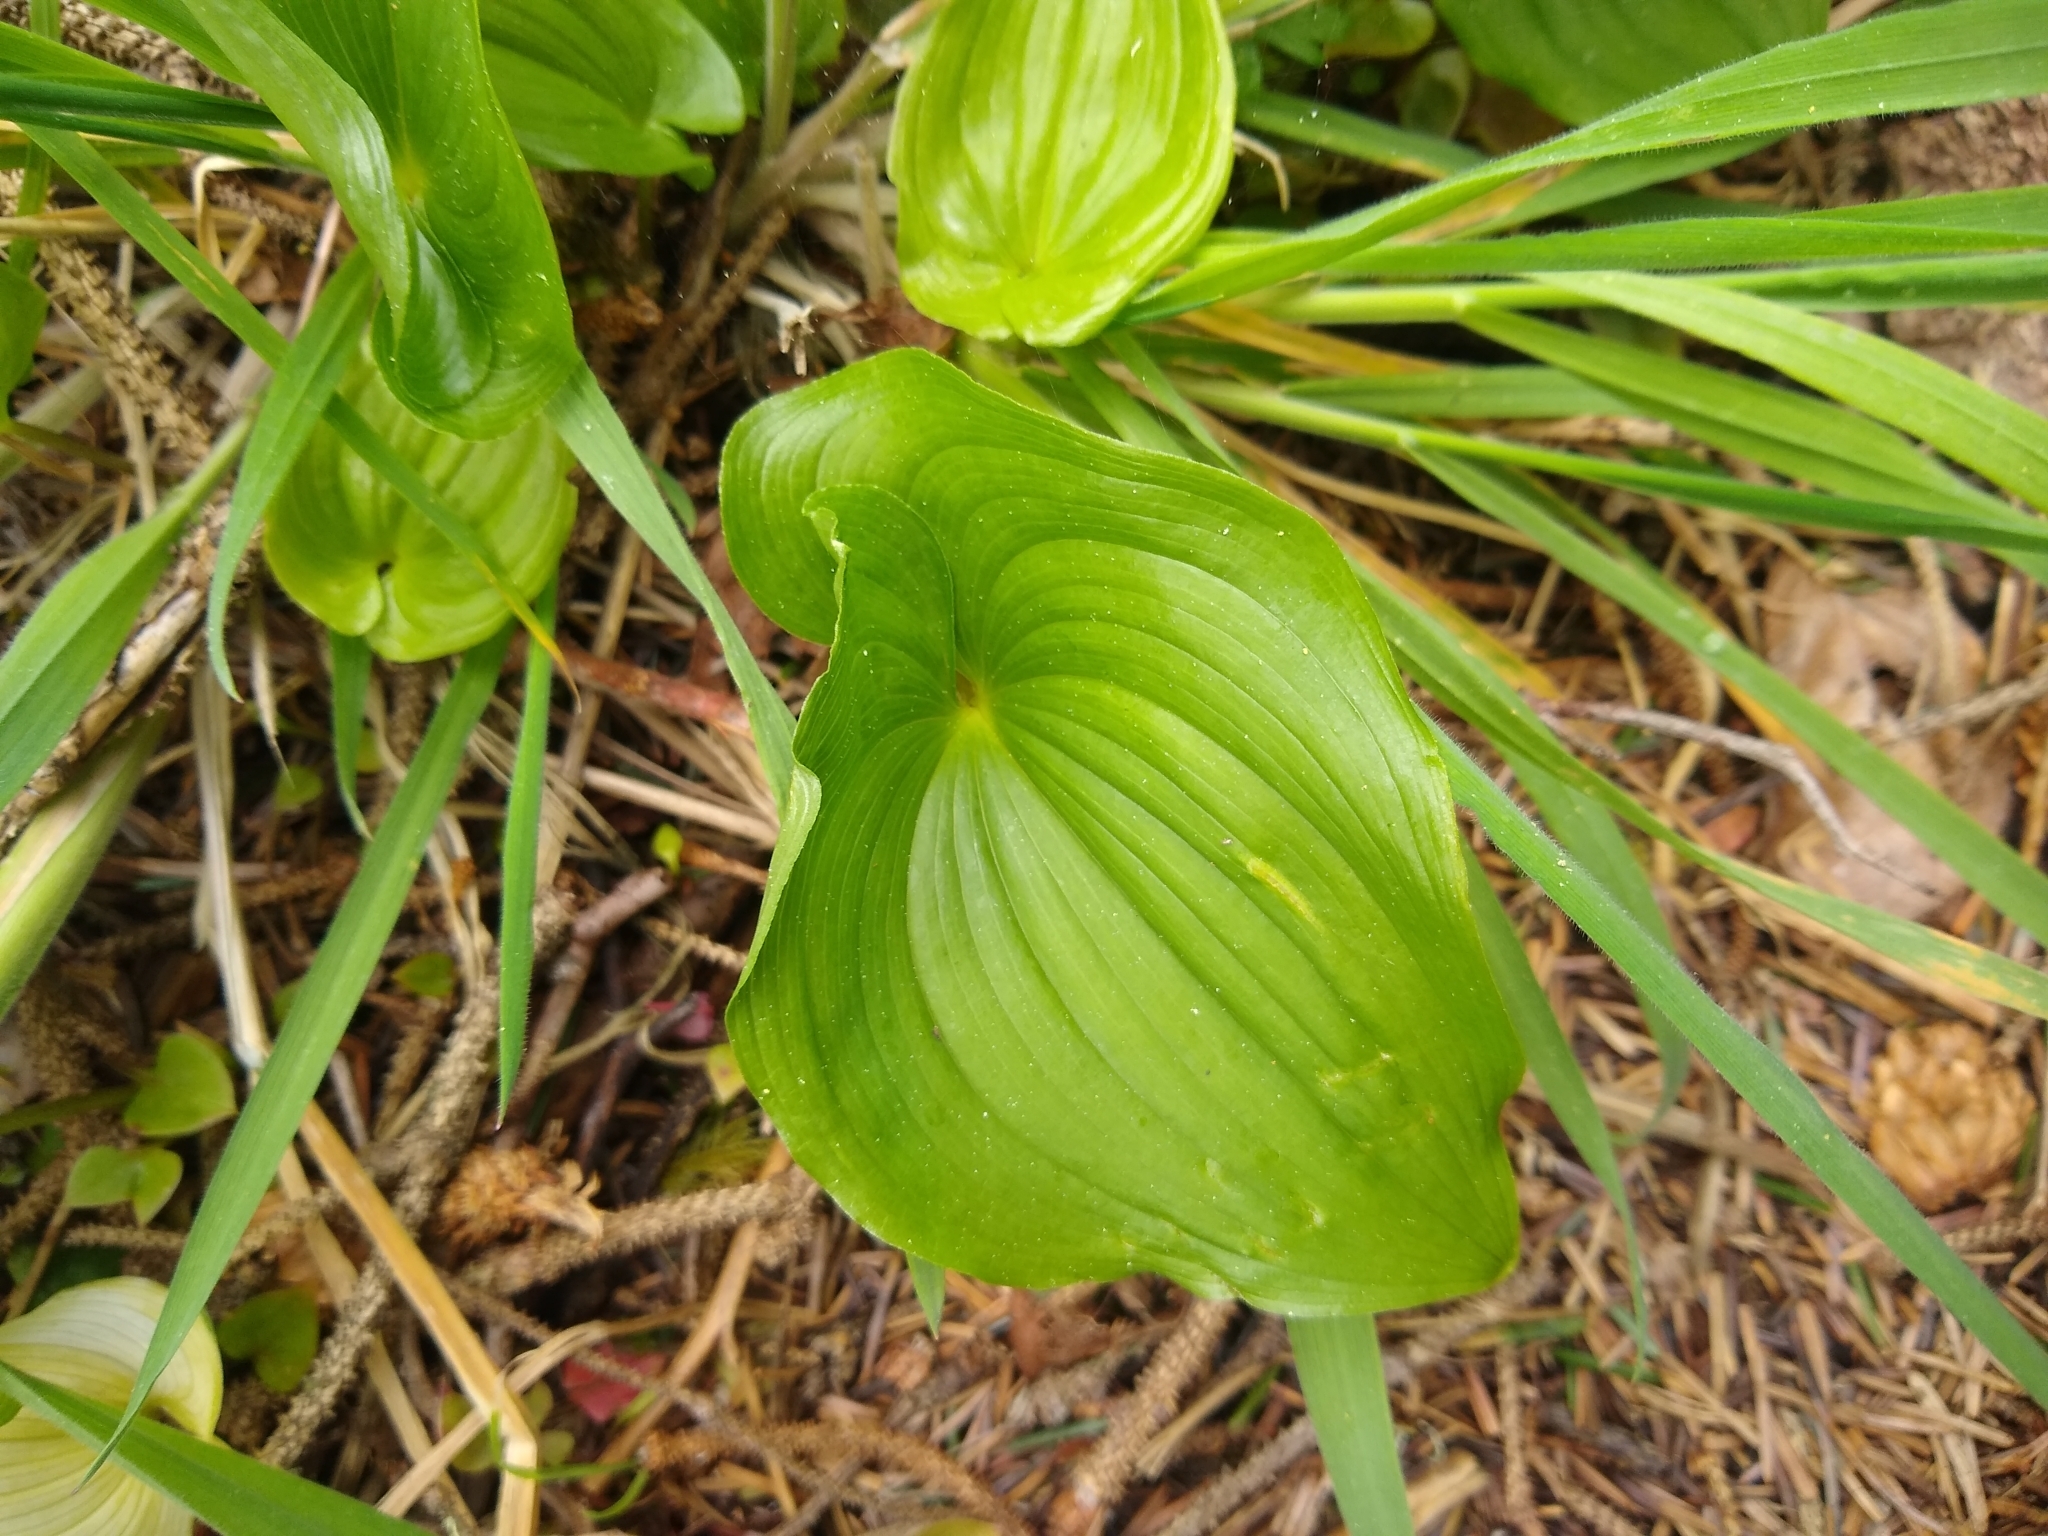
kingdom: Plantae
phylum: Tracheophyta
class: Liliopsida
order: Asparagales
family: Asparagaceae
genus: Maianthemum
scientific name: Maianthemum dilatatum
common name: False lily-of-the-valley
